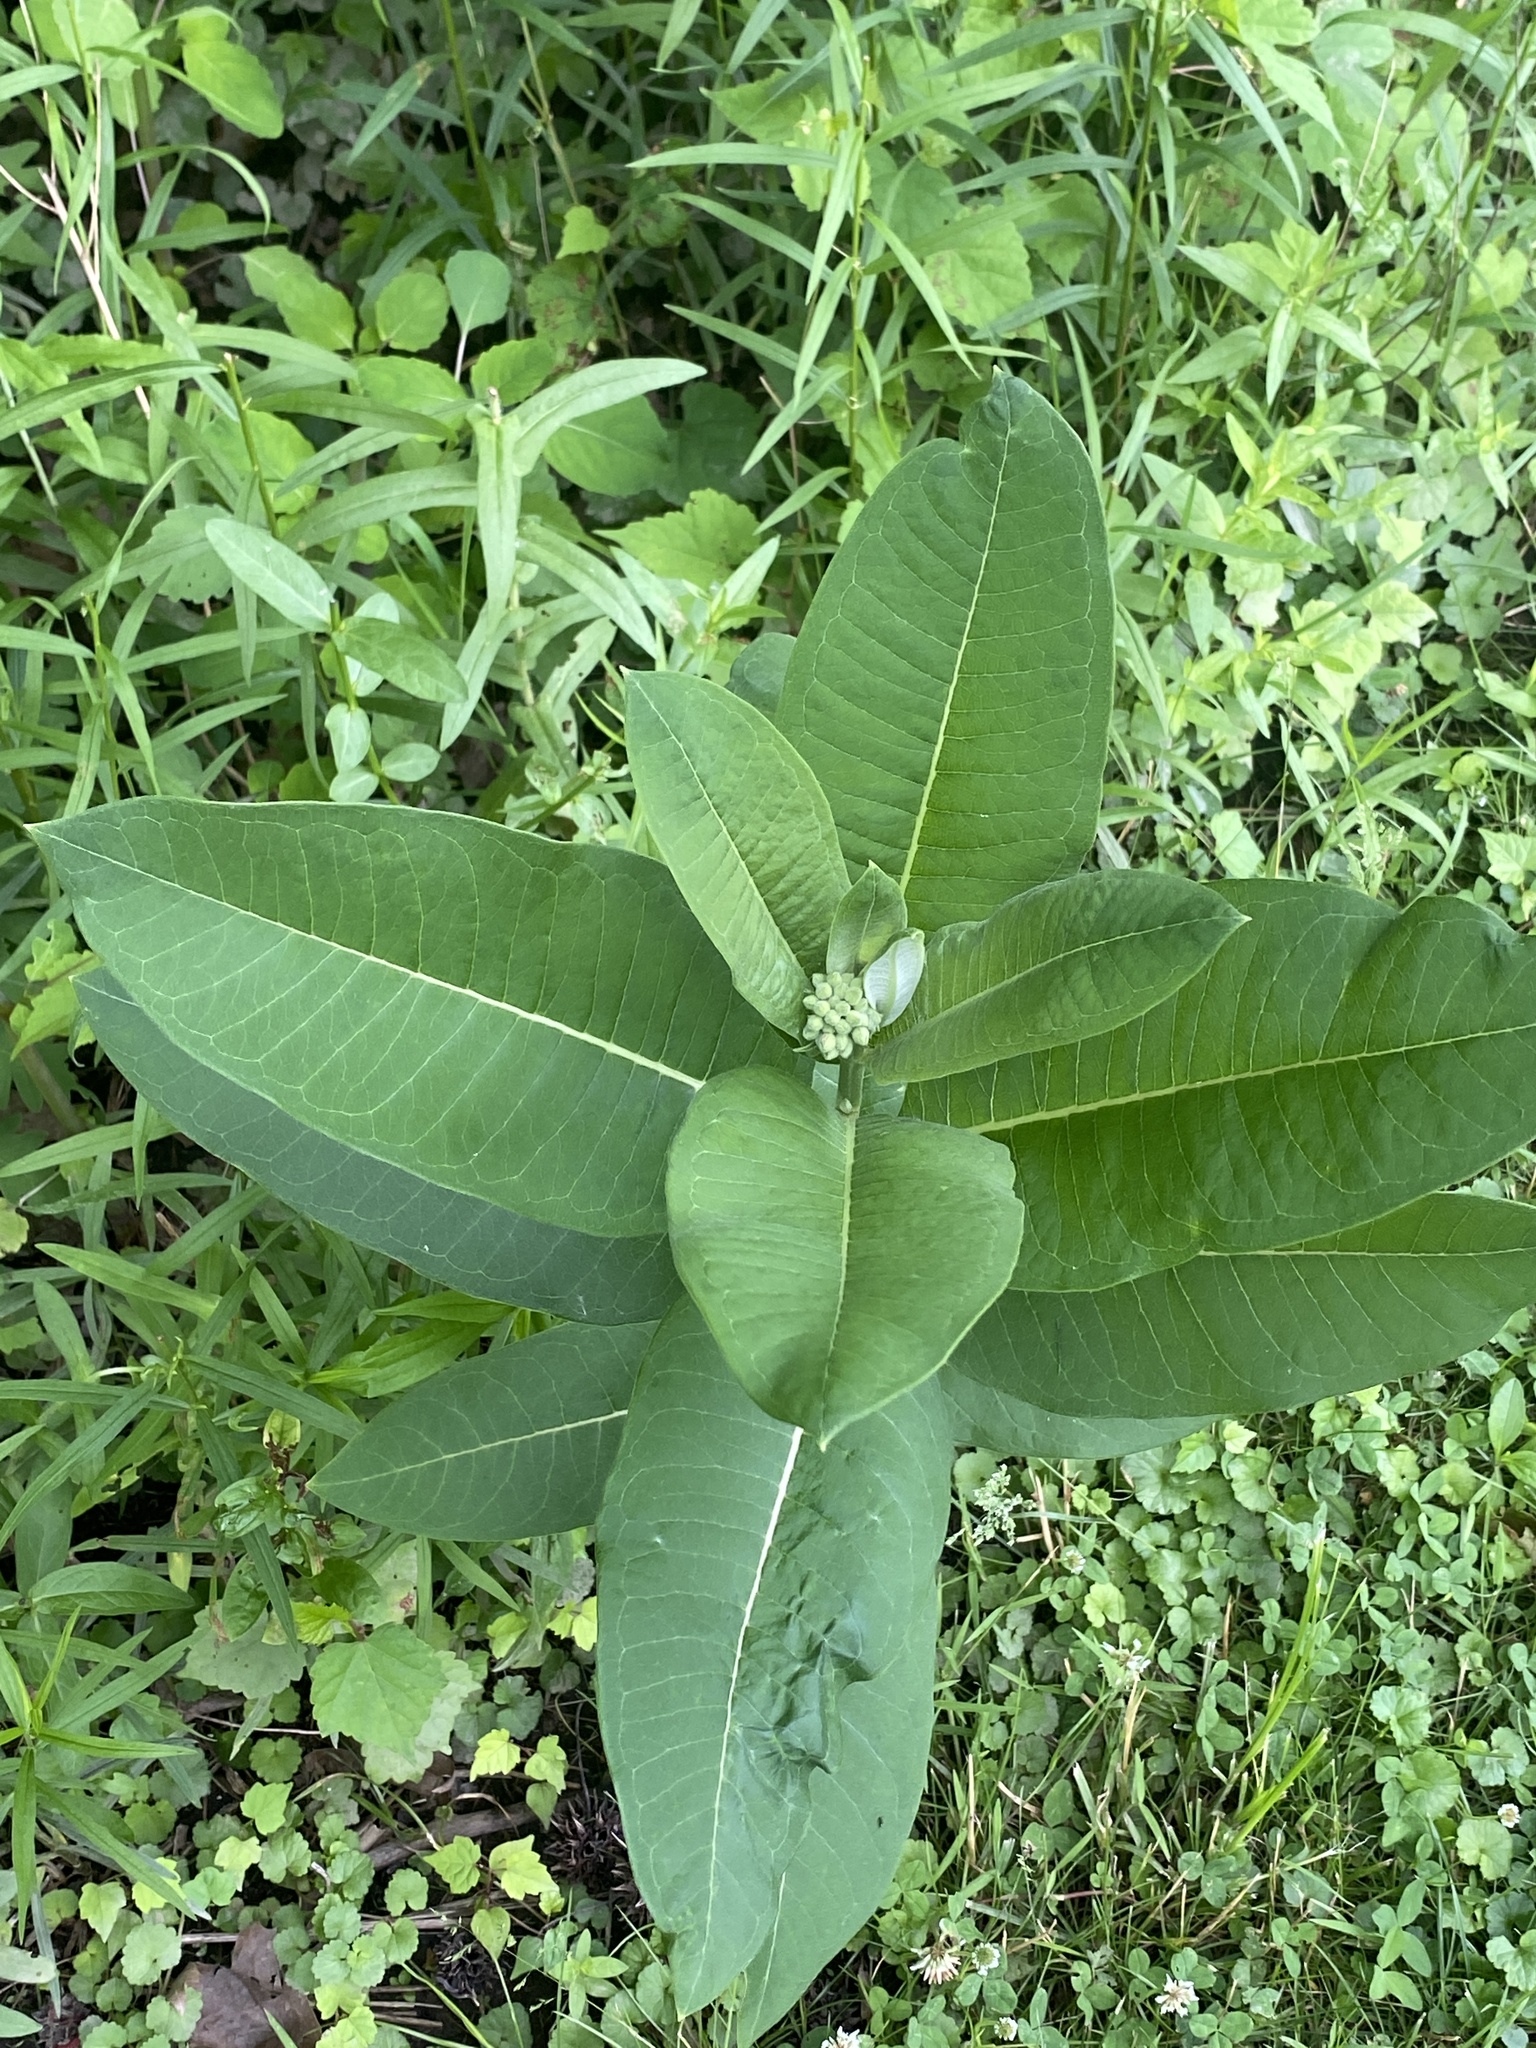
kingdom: Plantae
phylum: Tracheophyta
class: Magnoliopsida
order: Gentianales
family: Apocynaceae
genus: Asclepias
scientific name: Asclepias syriaca
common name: Common milkweed
